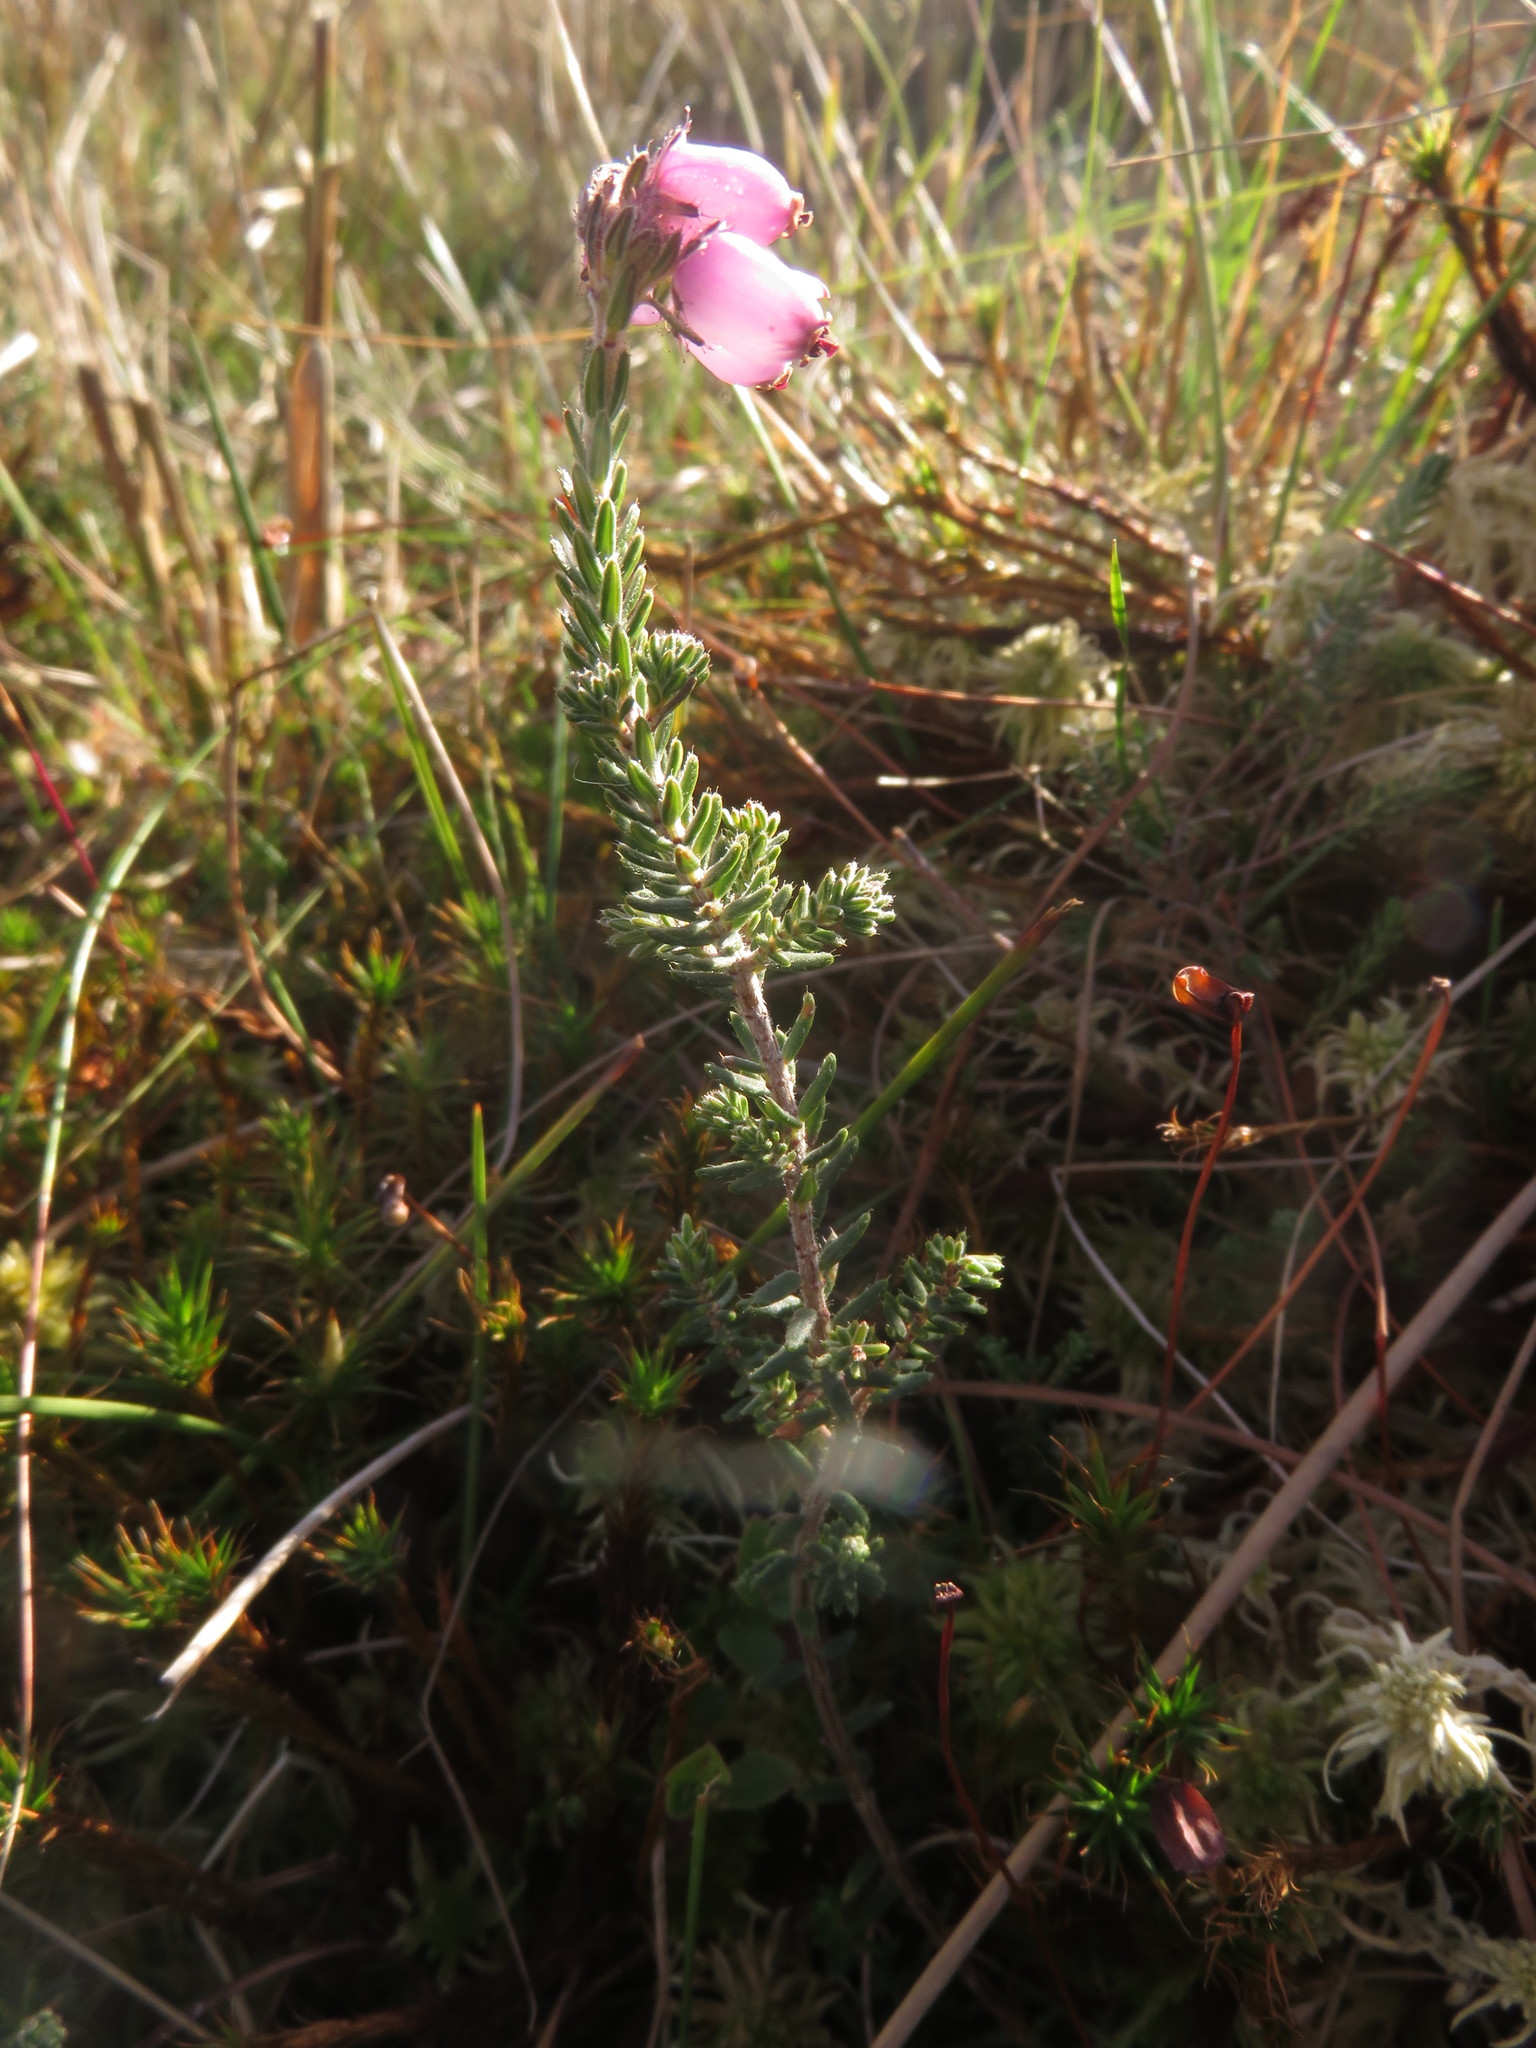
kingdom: Plantae
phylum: Tracheophyta
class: Magnoliopsida
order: Ericales
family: Ericaceae
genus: Erica
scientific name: Erica tetralix
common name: Cross-leaved heath
